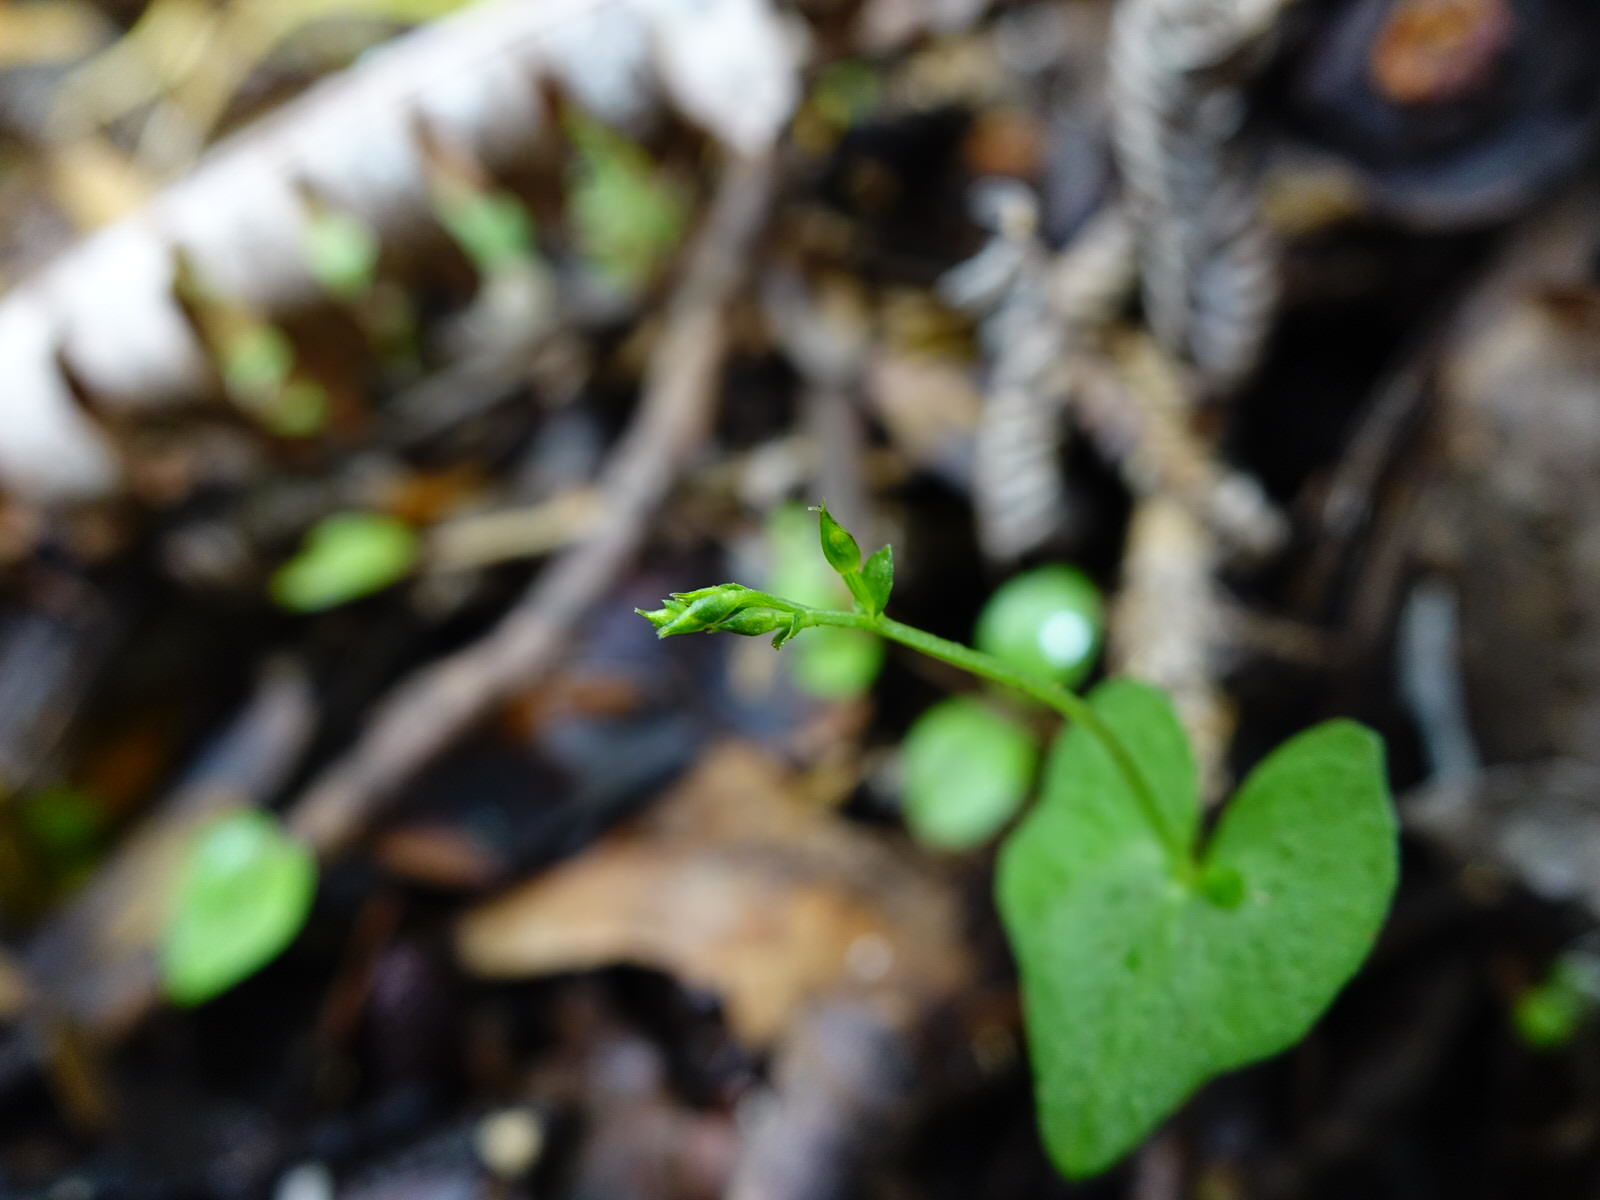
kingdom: Plantae
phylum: Tracheophyta
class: Liliopsida
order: Asparagales
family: Orchidaceae
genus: Acianthus
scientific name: Acianthus sinclairii
